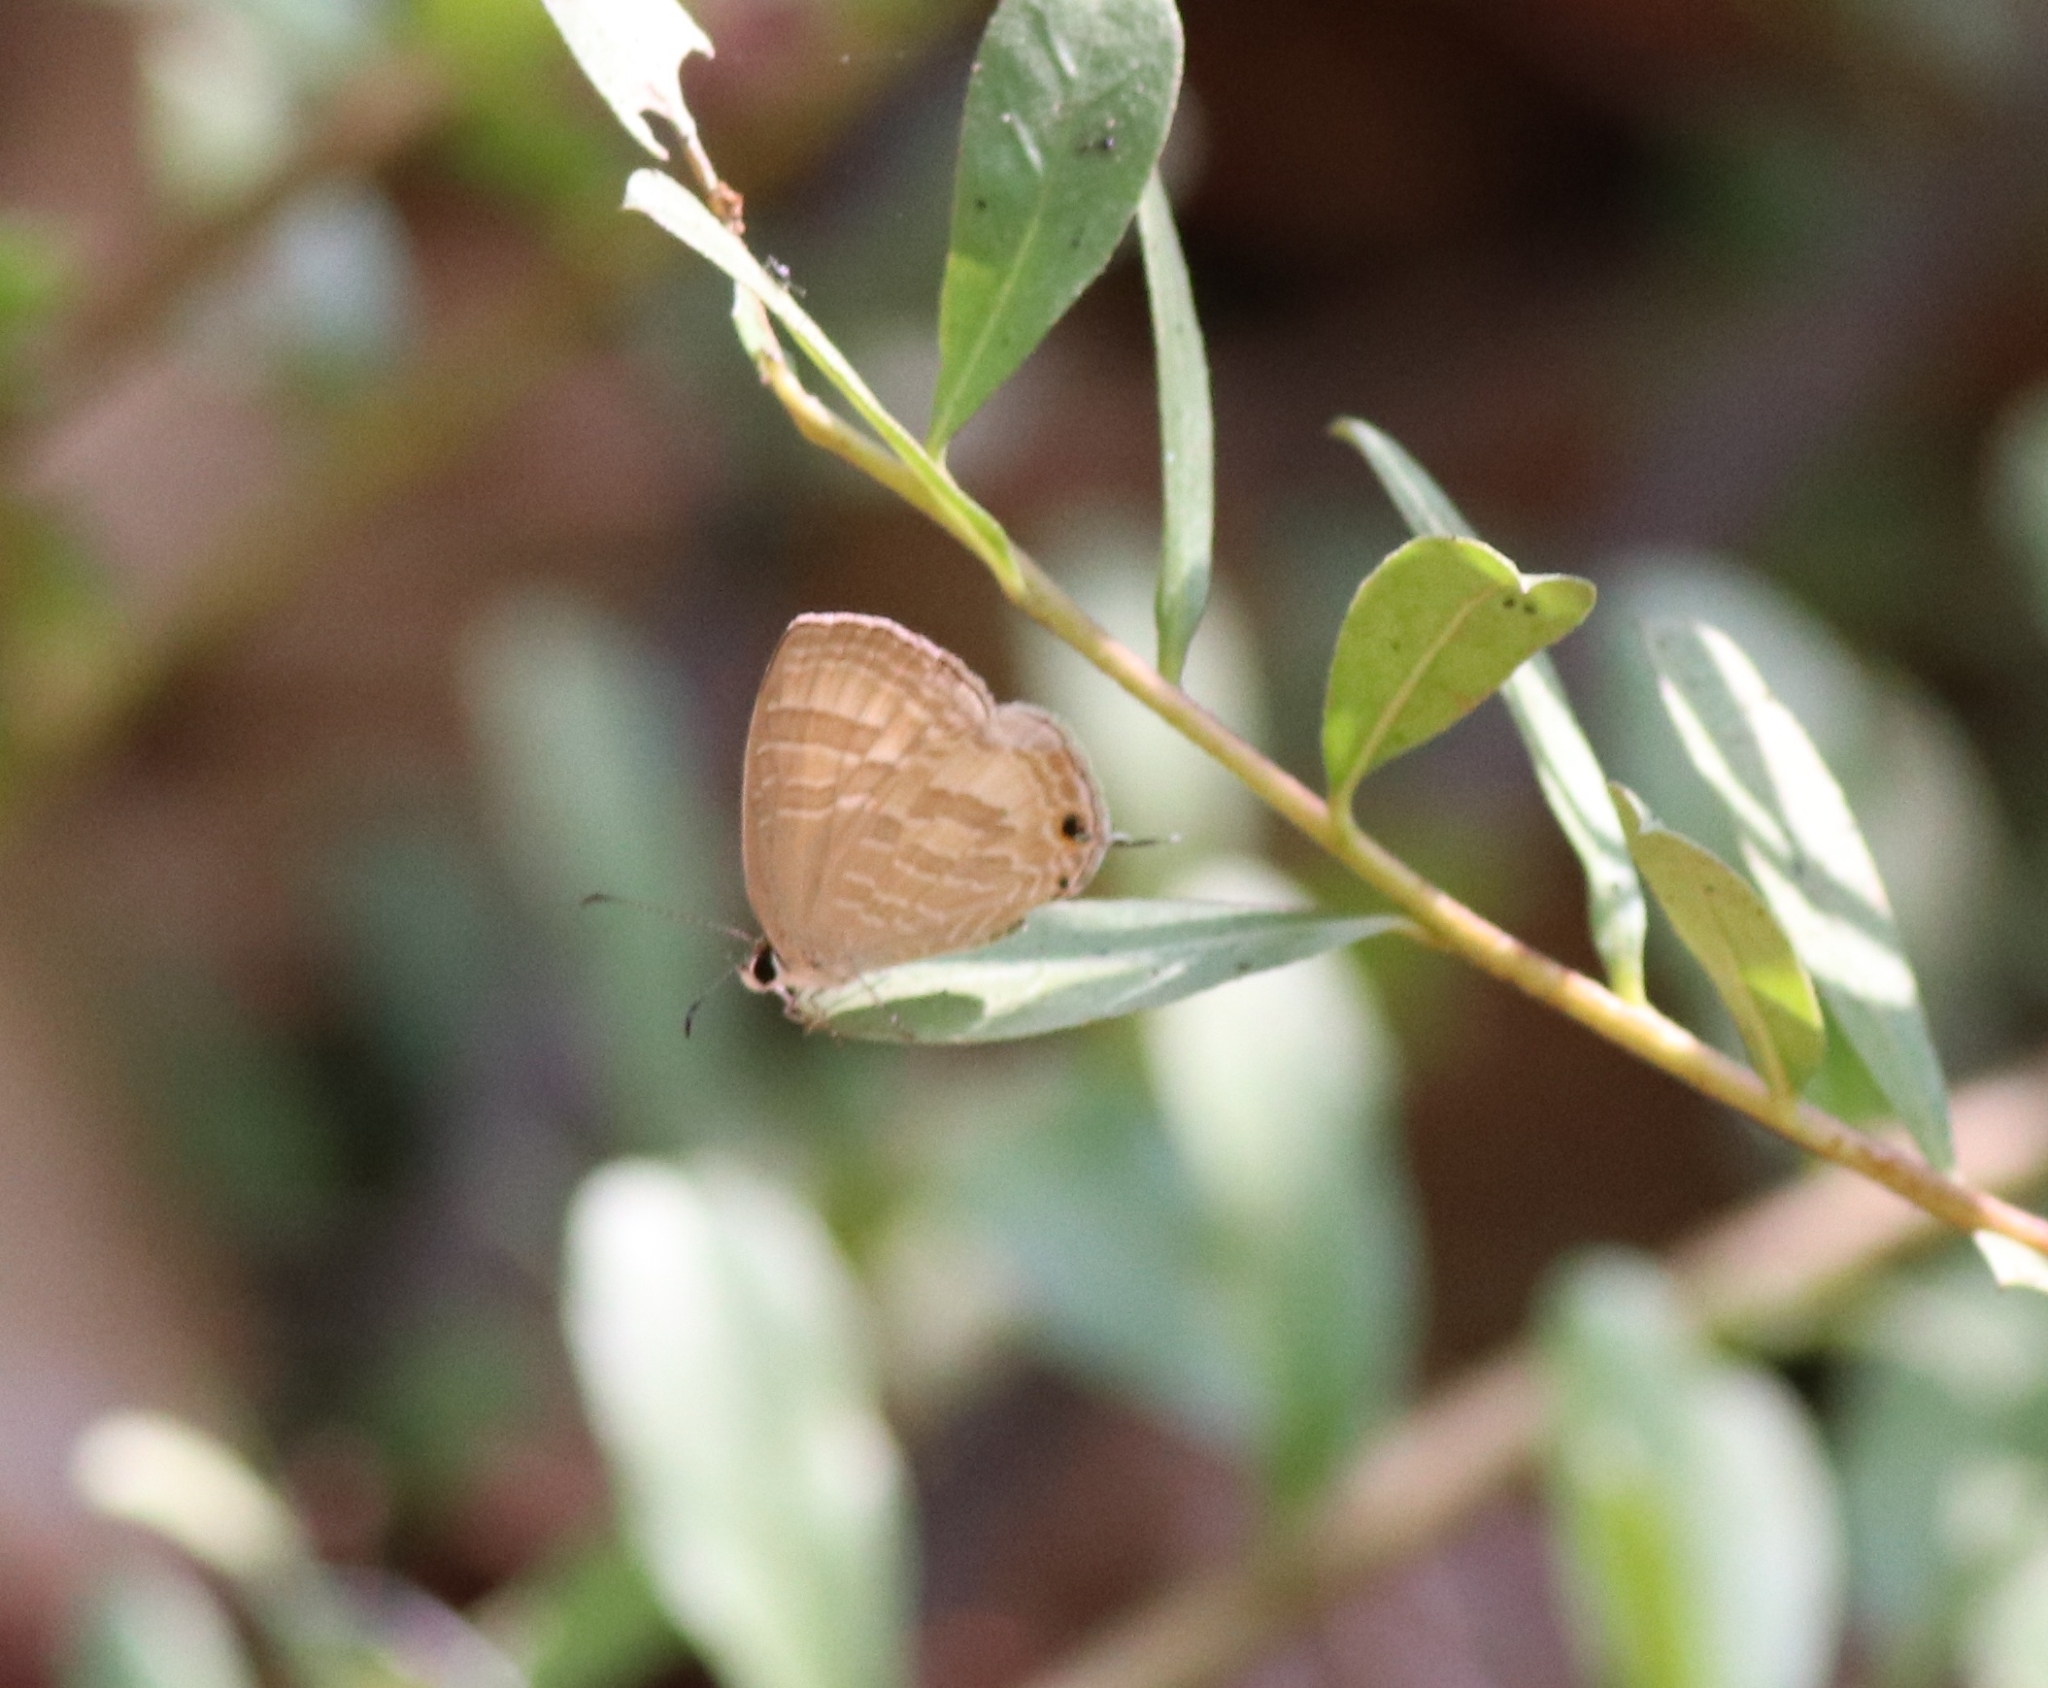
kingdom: Animalia
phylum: Arthropoda
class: Insecta
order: Lepidoptera
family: Lycaenidae
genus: Jamides
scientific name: Jamides celeno
